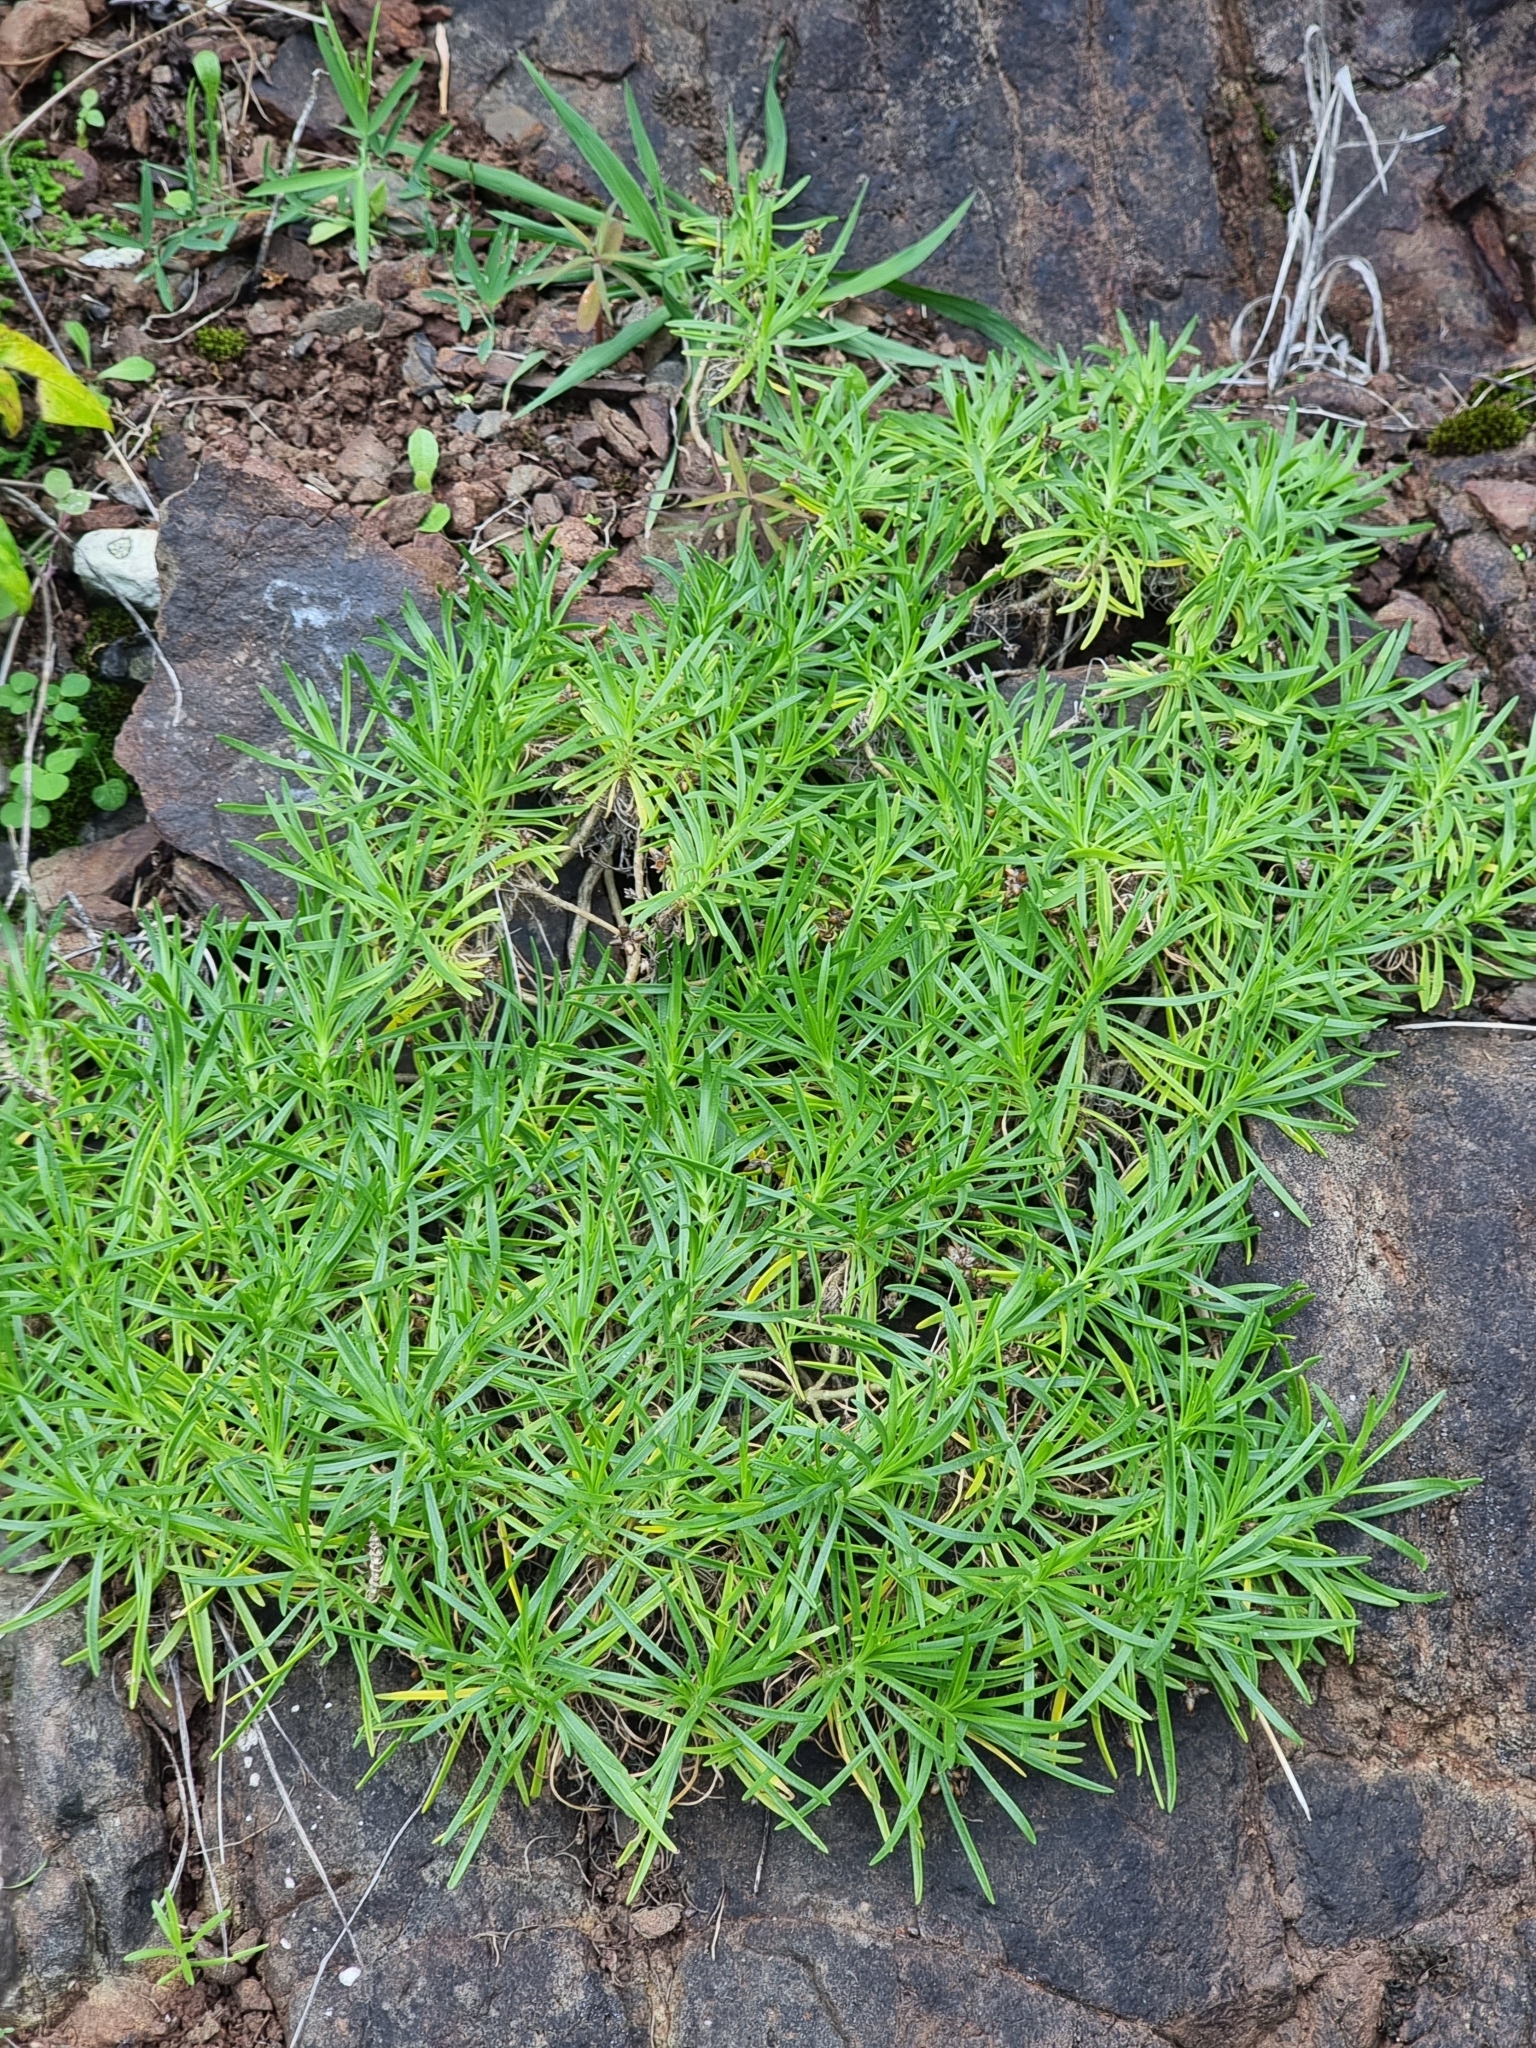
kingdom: Plantae
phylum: Tracheophyta
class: Magnoliopsida
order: Lamiales
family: Plantaginaceae
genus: Plantago
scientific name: Plantago arborescens
